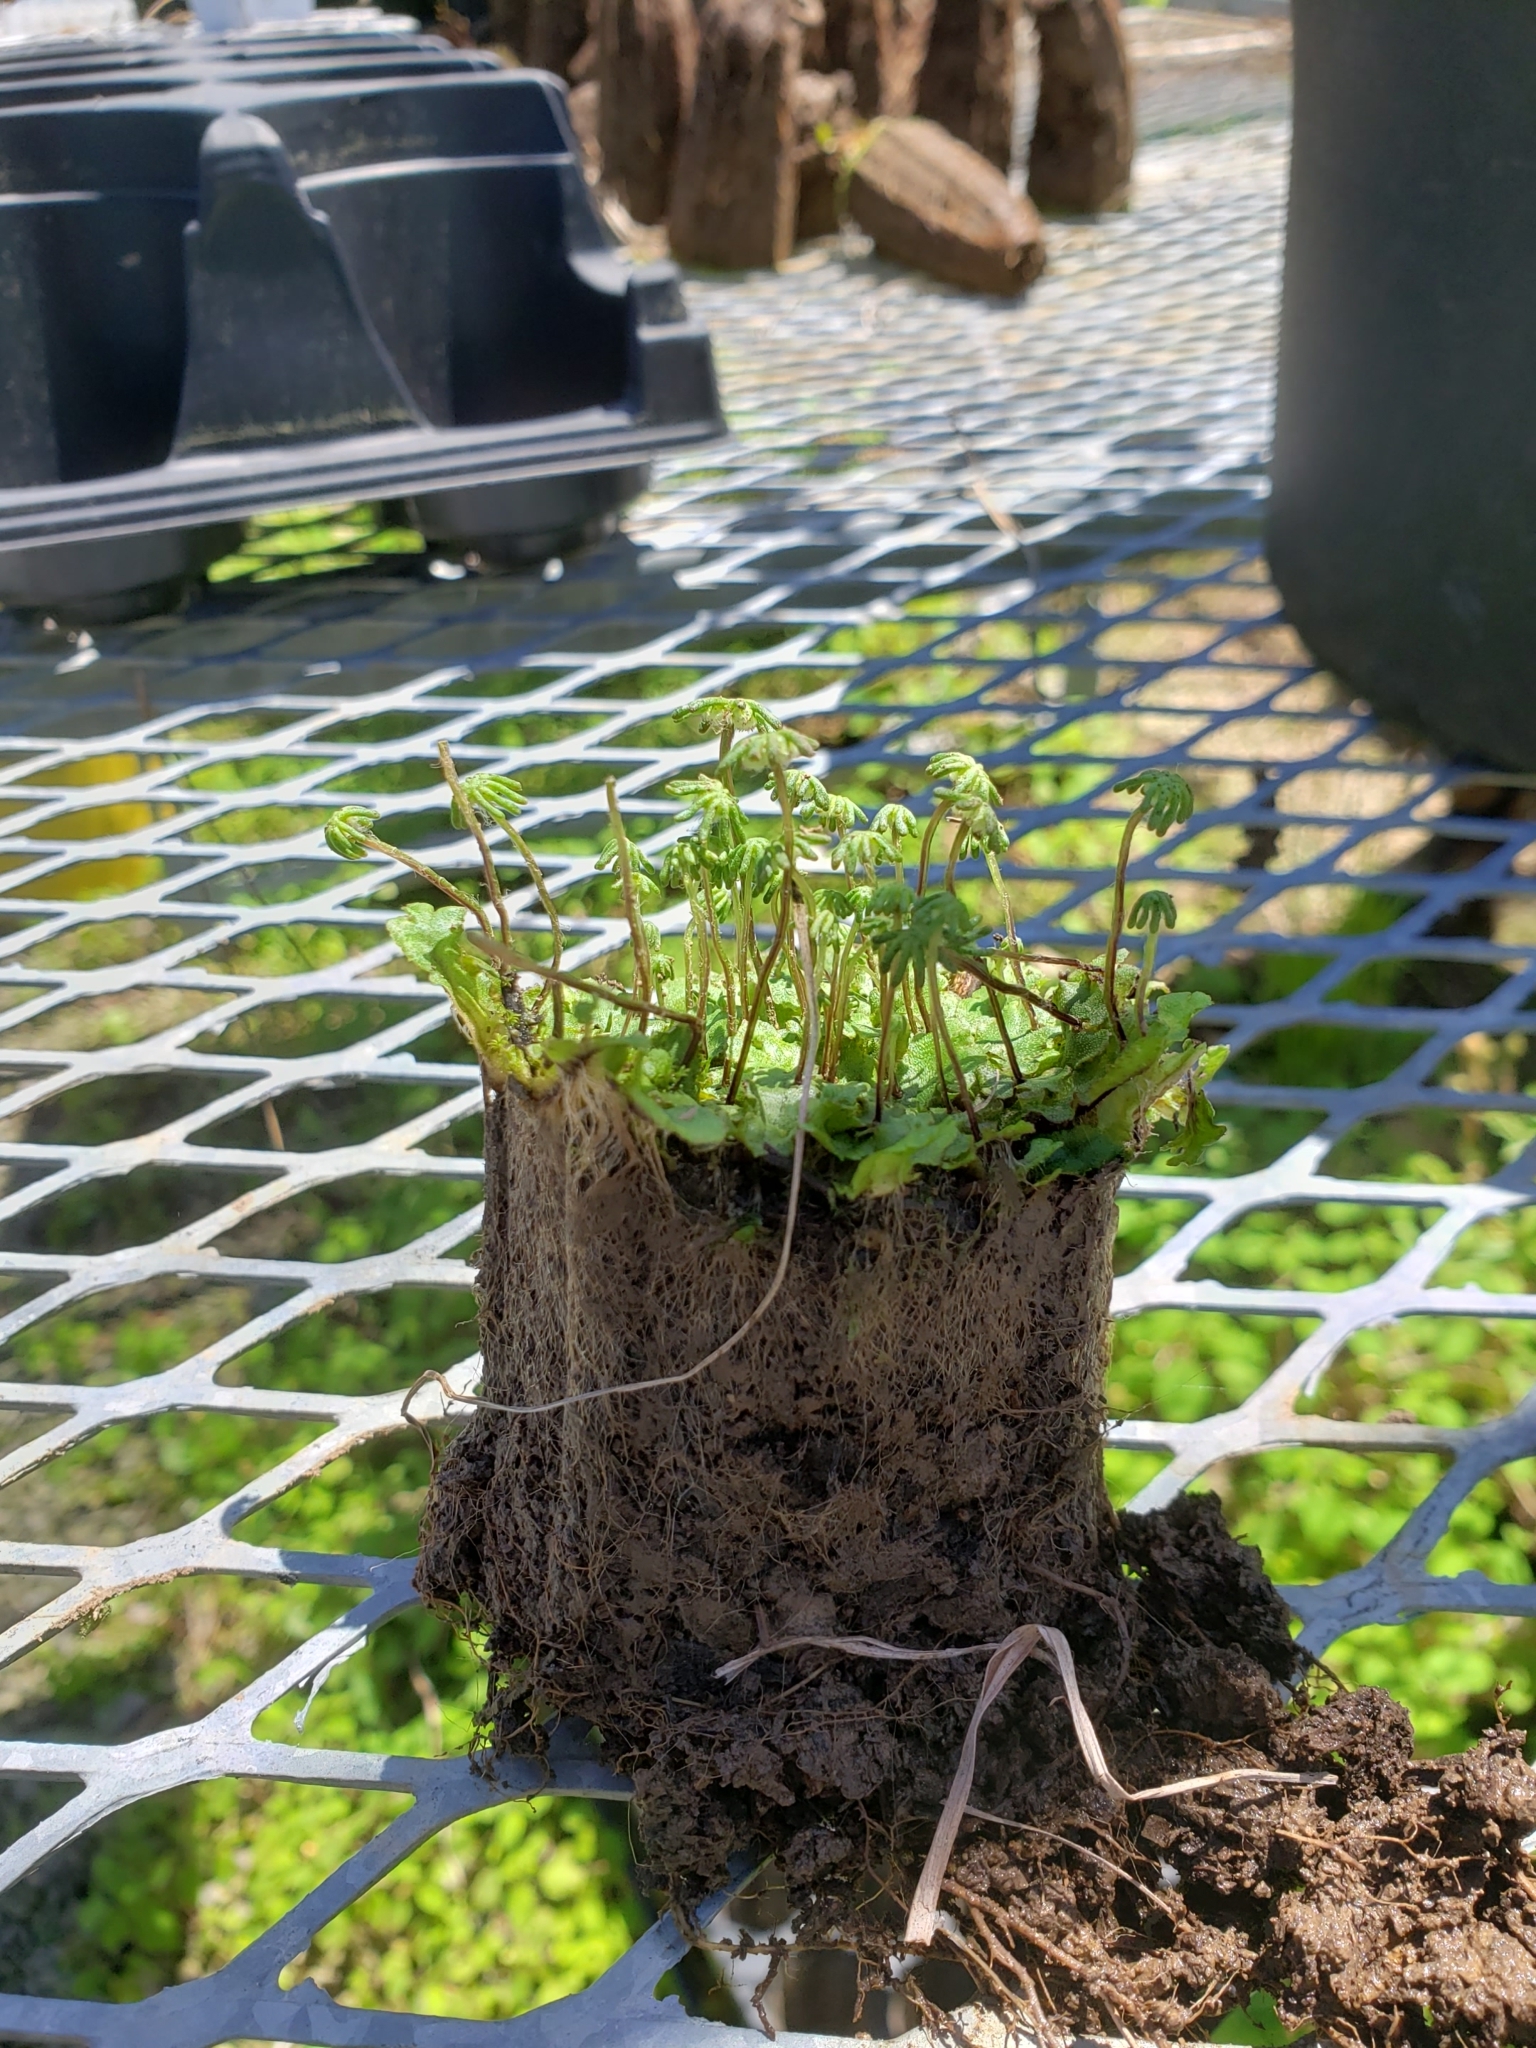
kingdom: Plantae
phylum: Marchantiophyta
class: Marchantiopsida
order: Marchantiales
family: Marchantiaceae
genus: Marchantia
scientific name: Marchantia polymorpha
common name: Common liverwort
